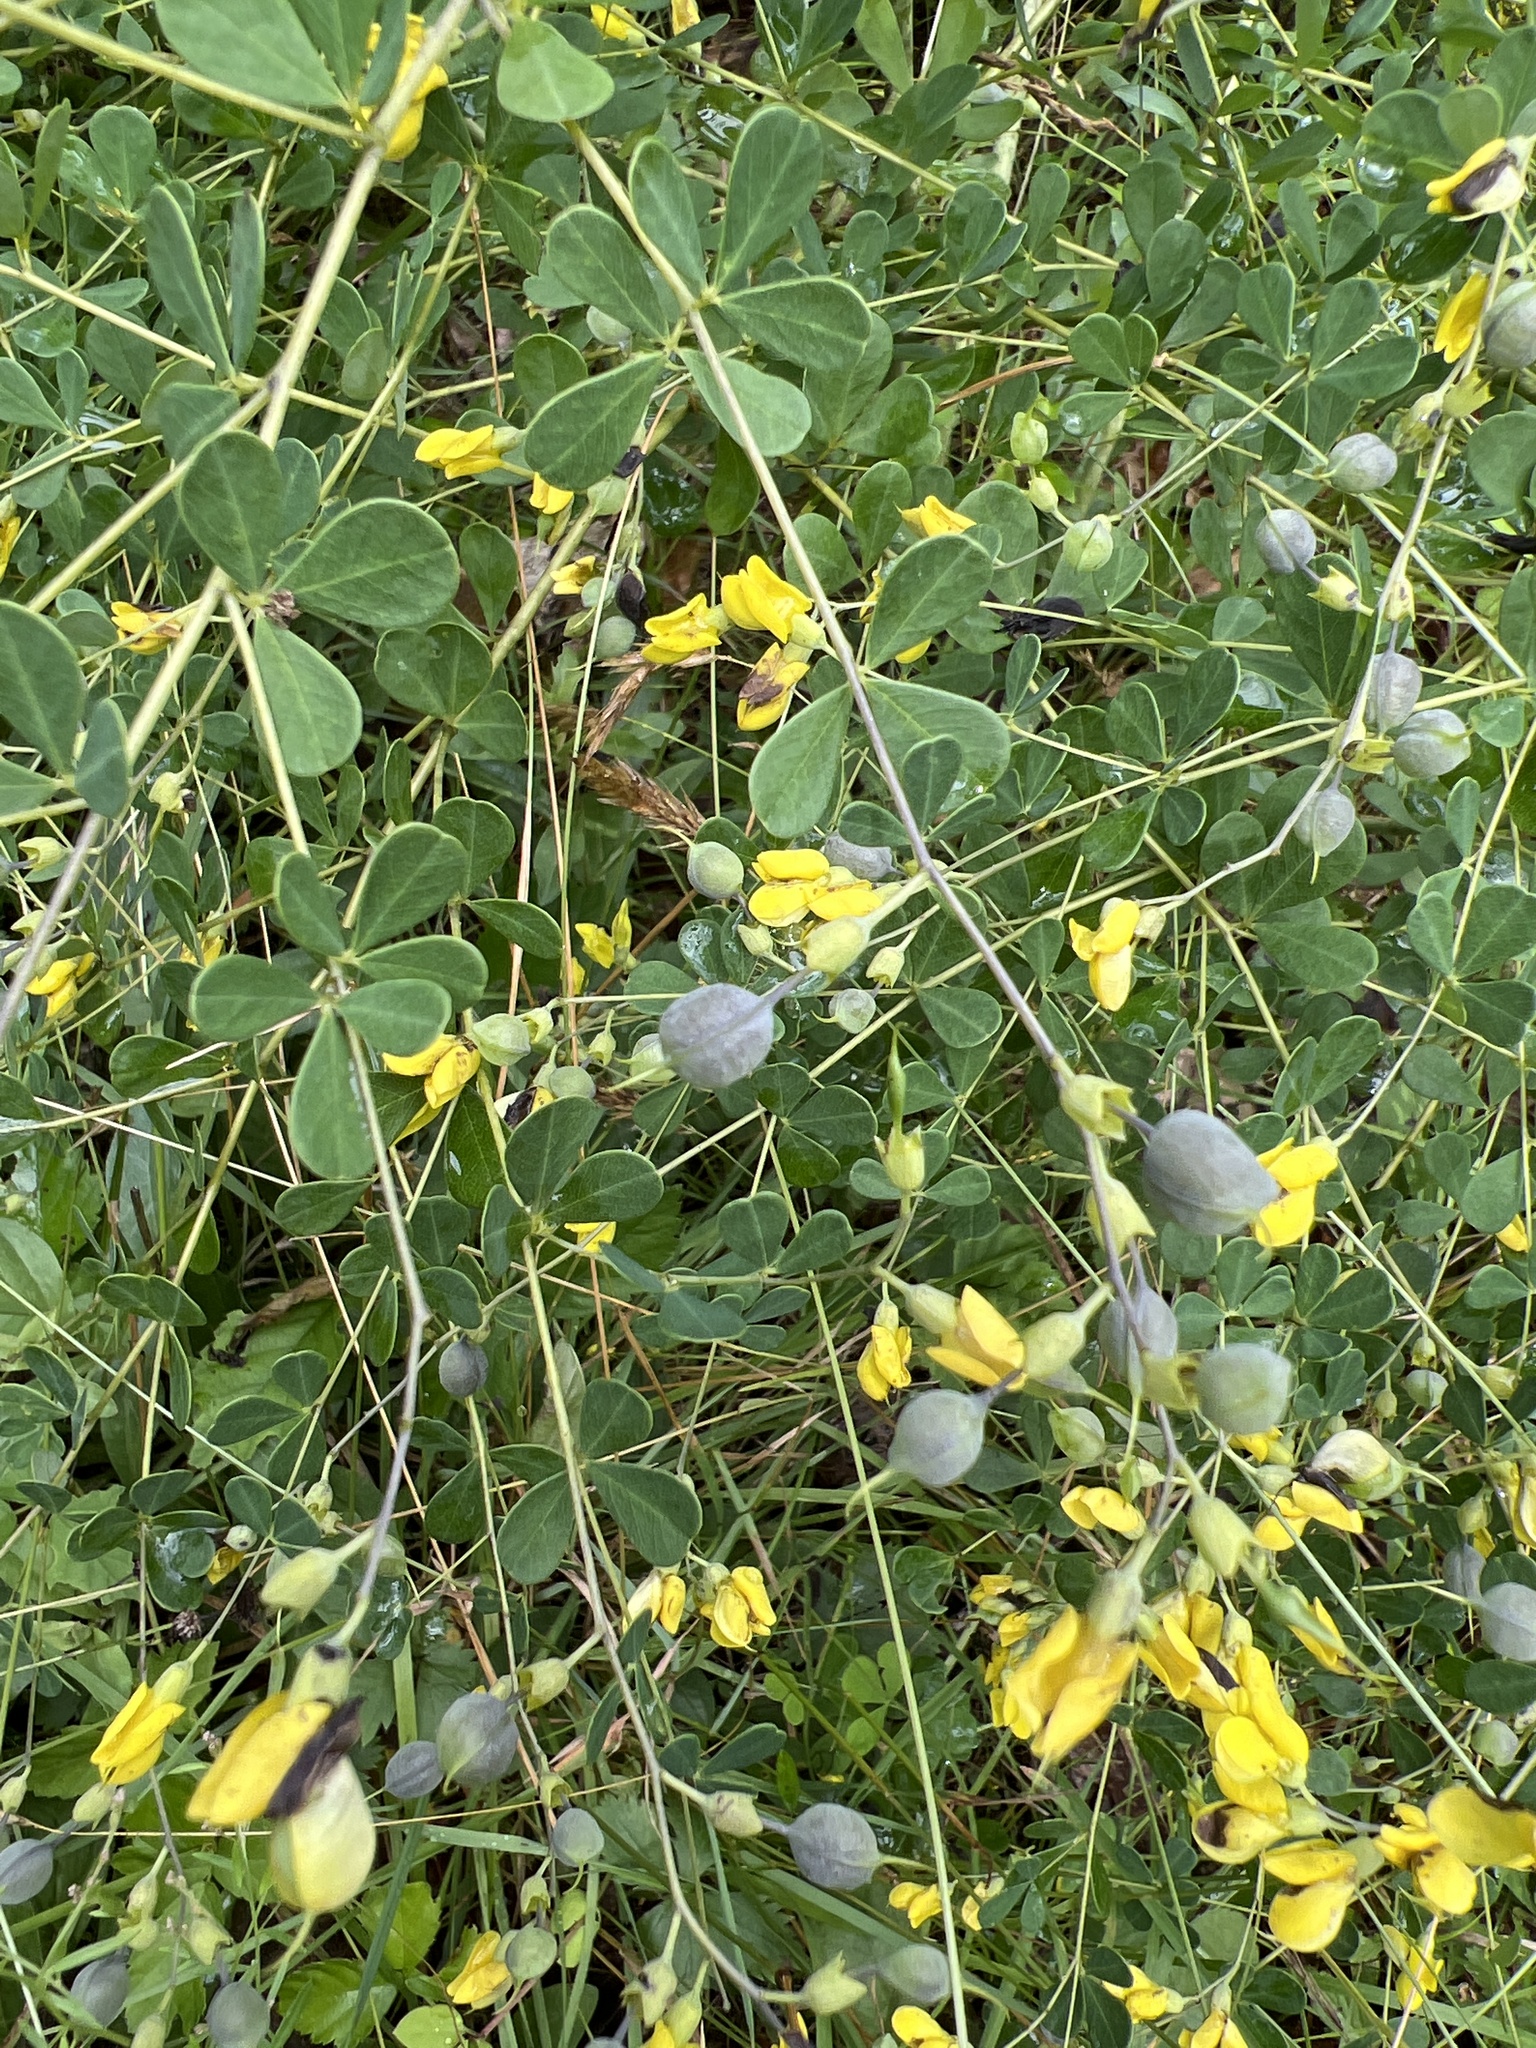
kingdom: Plantae
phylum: Tracheophyta
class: Magnoliopsida
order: Fabales
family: Fabaceae
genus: Baptisia
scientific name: Baptisia tinctoria
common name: Wild indigo
